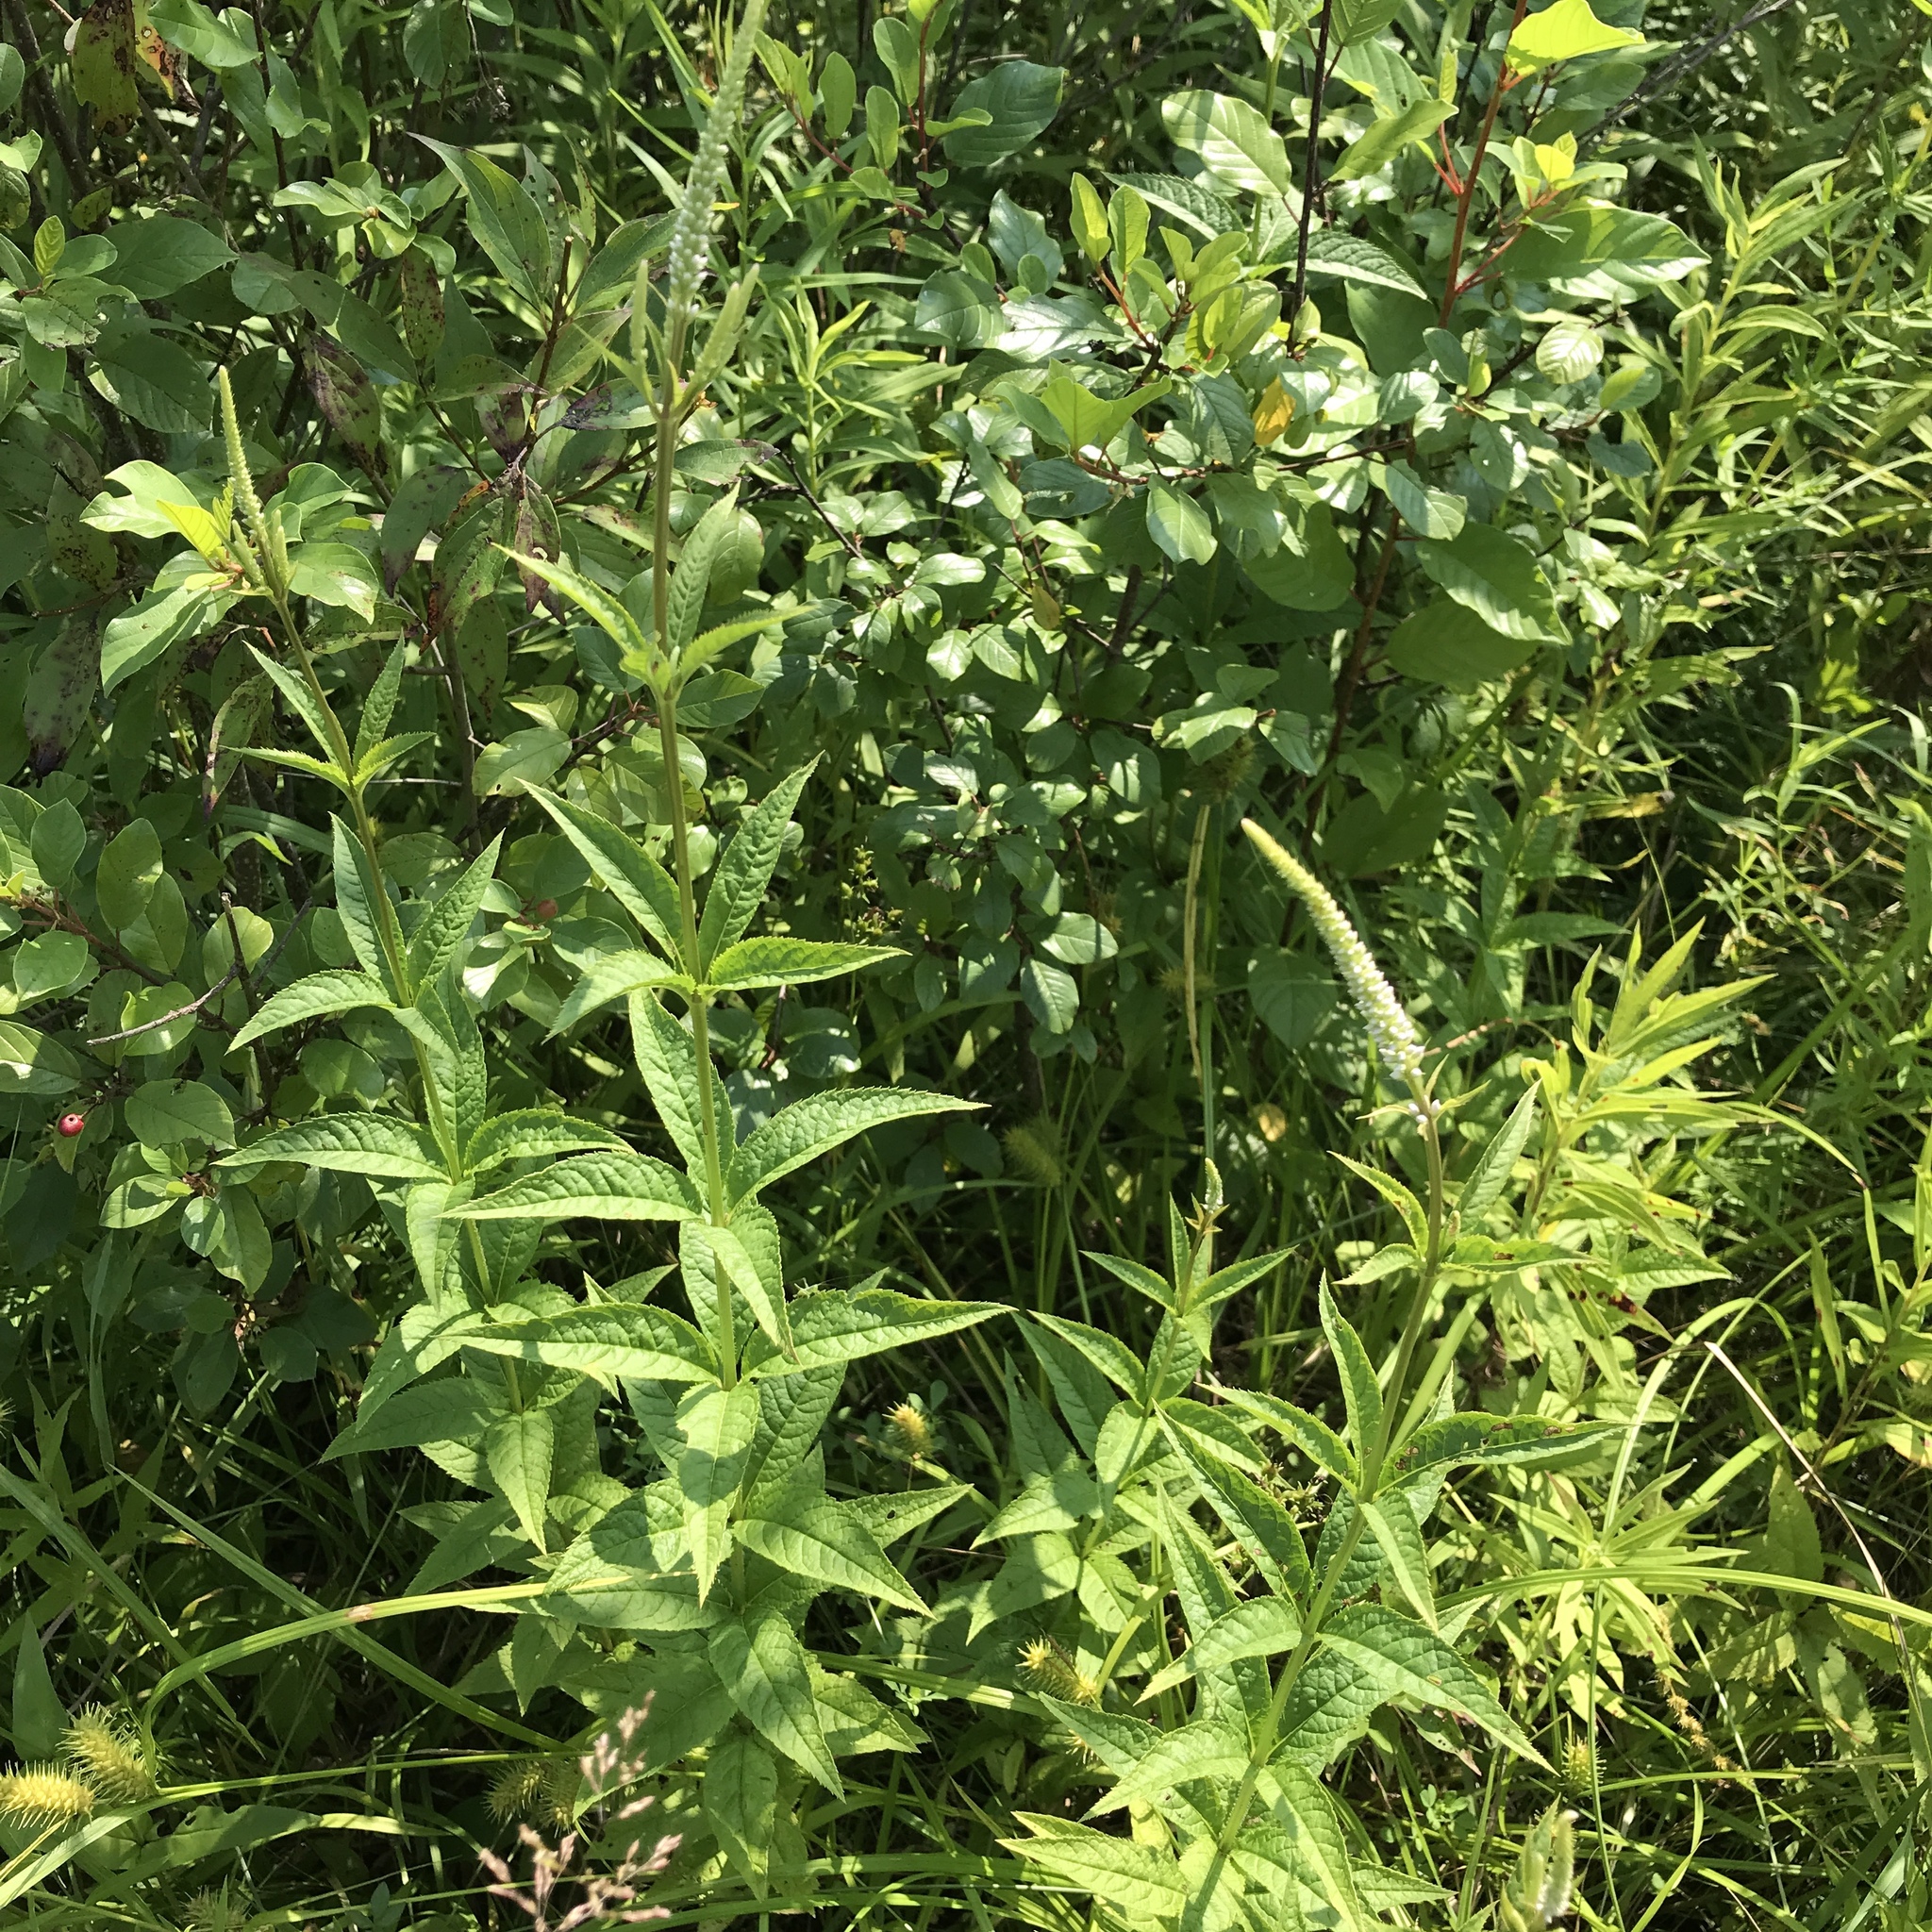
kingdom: Plantae
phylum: Tracheophyta
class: Magnoliopsida
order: Lamiales
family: Plantaginaceae
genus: Veronicastrum
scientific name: Veronicastrum virginicum
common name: Blackroot
